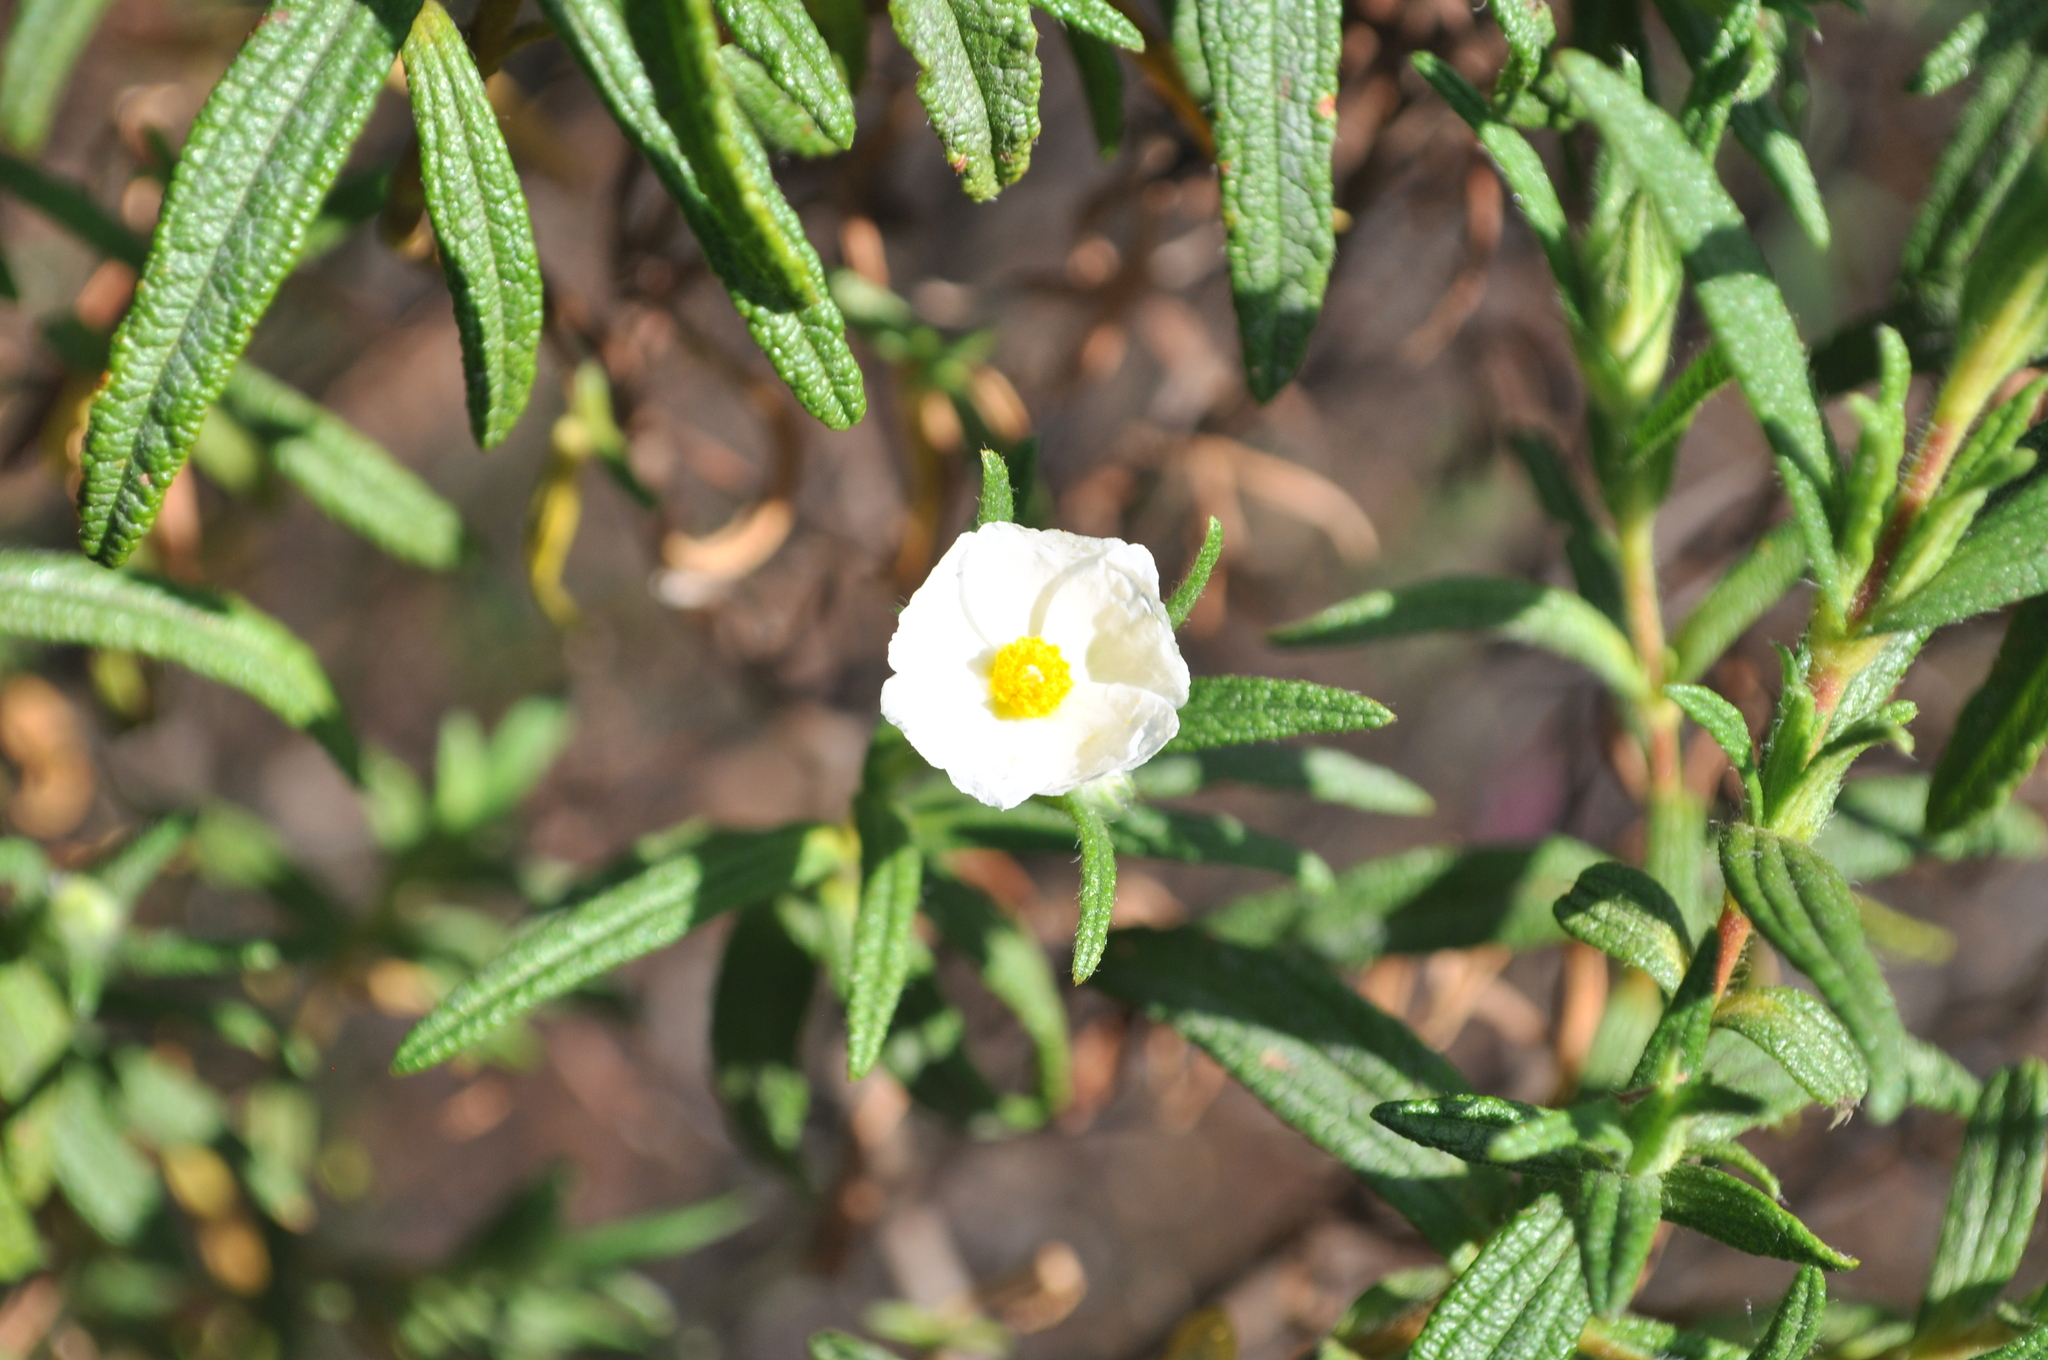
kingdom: Plantae
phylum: Tracheophyta
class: Magnoliopsida
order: Malvales
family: Cistaceae
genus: Cistus
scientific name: Cistus monspeliensis
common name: Montpelier cistus
